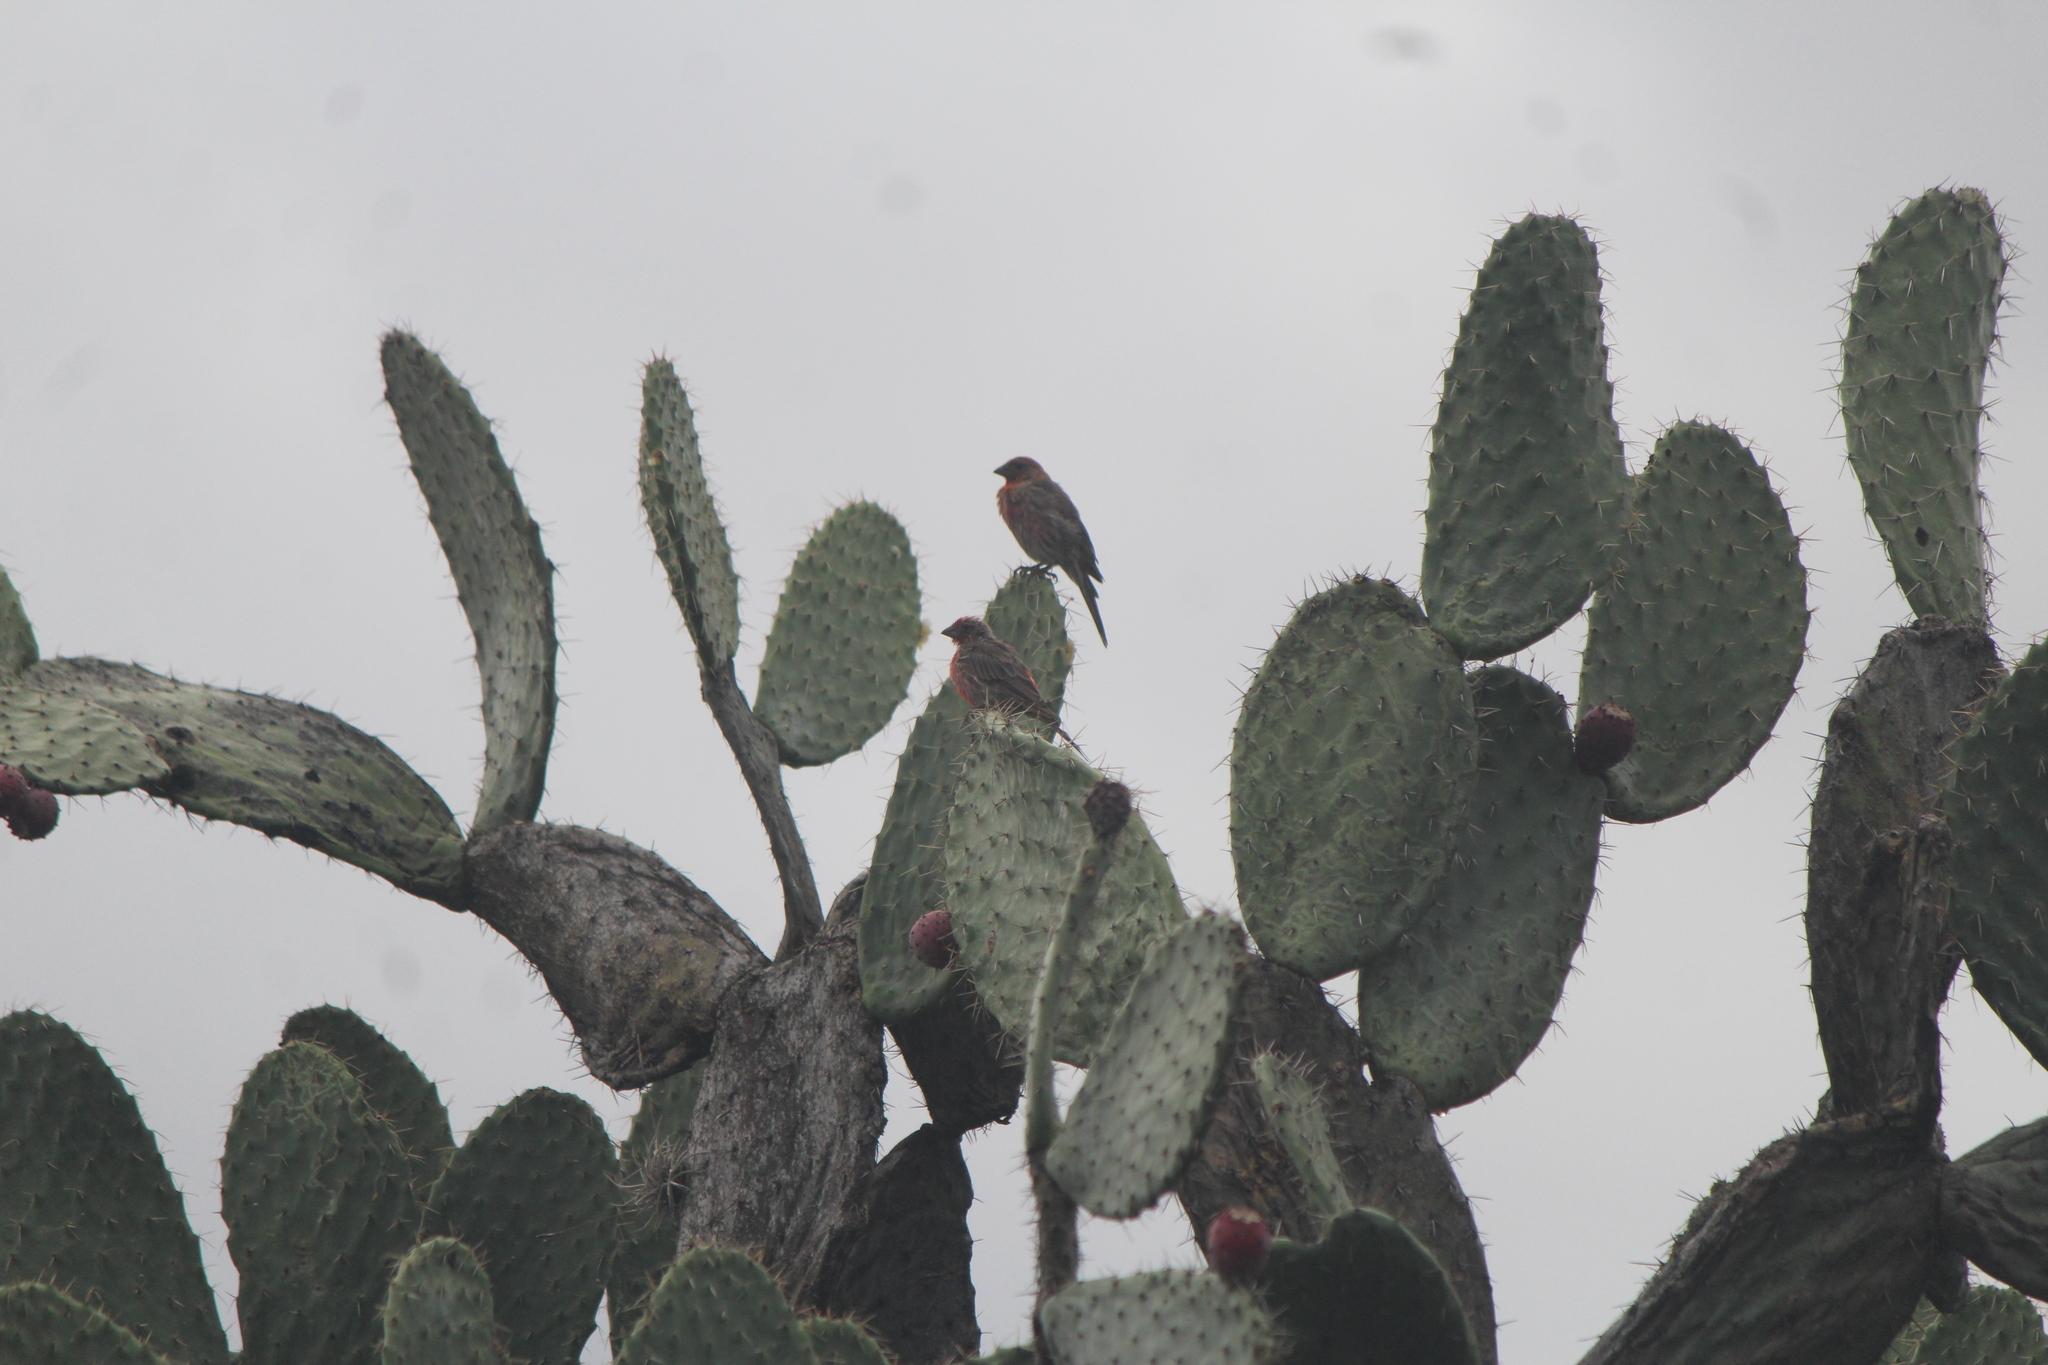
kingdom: Animalia
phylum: Chordata
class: Aves
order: Passeriformes
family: Fringillidae
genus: Haemorhous
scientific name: Haemorhous mexicanus
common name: House finch
